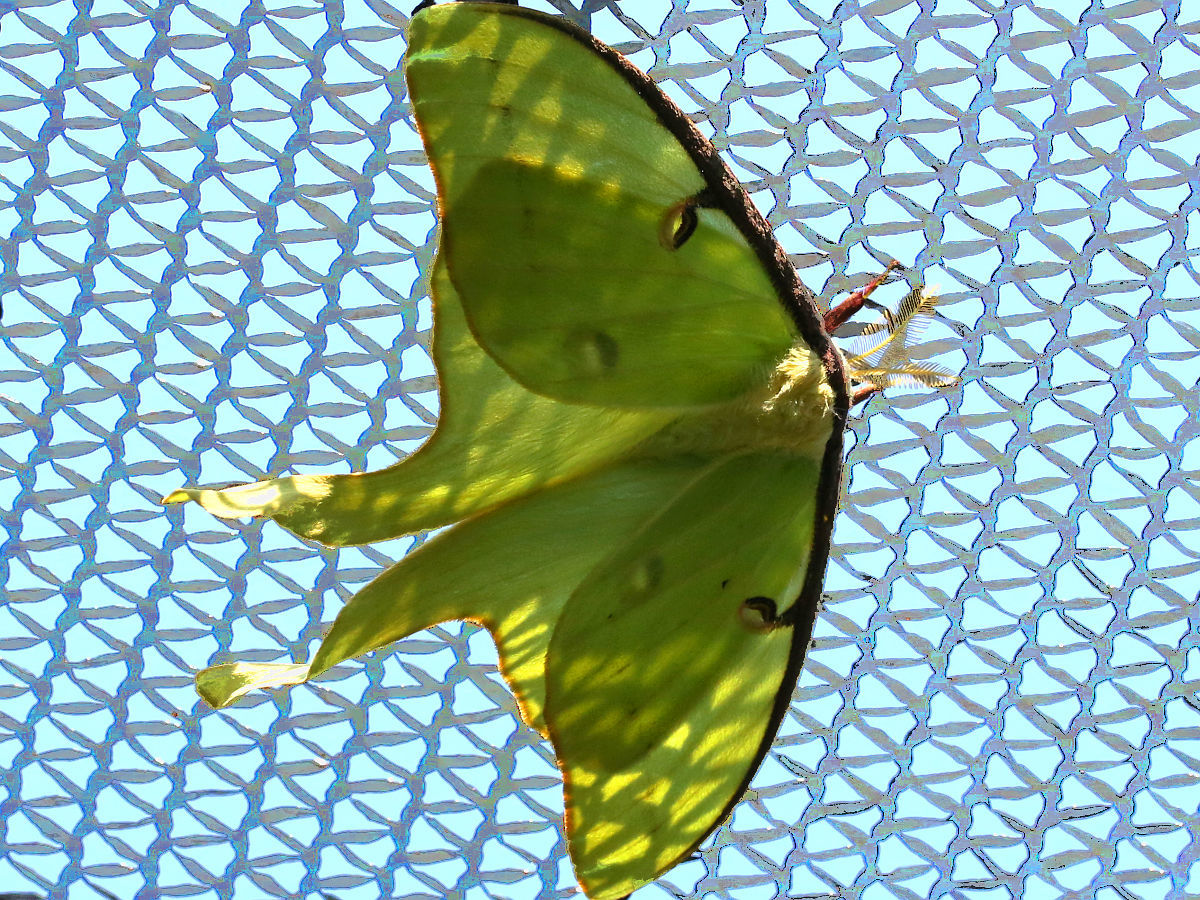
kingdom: Animalia
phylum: Arthropoda
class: Insecta
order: Lepidoptera
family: Saturniidae
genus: Actias
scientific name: Actias luna
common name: Luna moth
